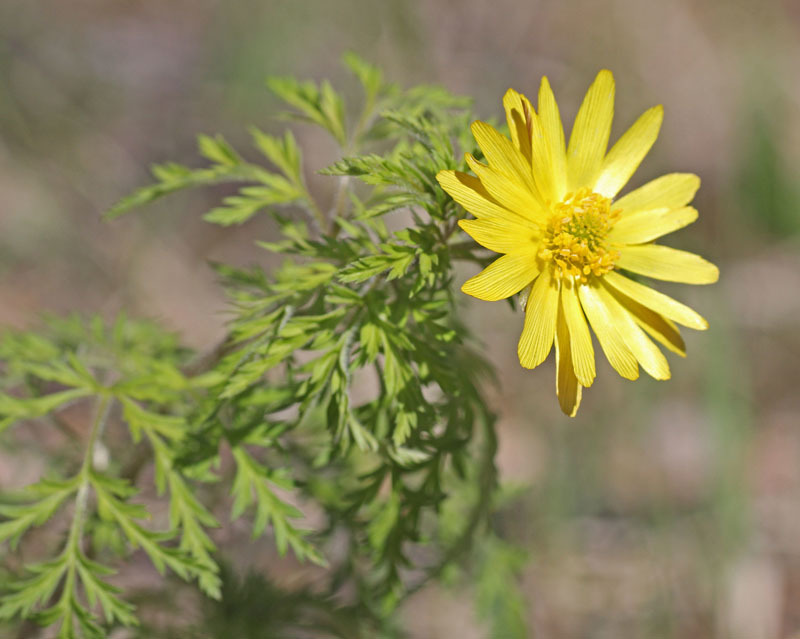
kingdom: Plantae
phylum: Tracheophyta
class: Magnoliopsida
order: Ranunculales
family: Ranunculaceae
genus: Adonis
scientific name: Adonis
